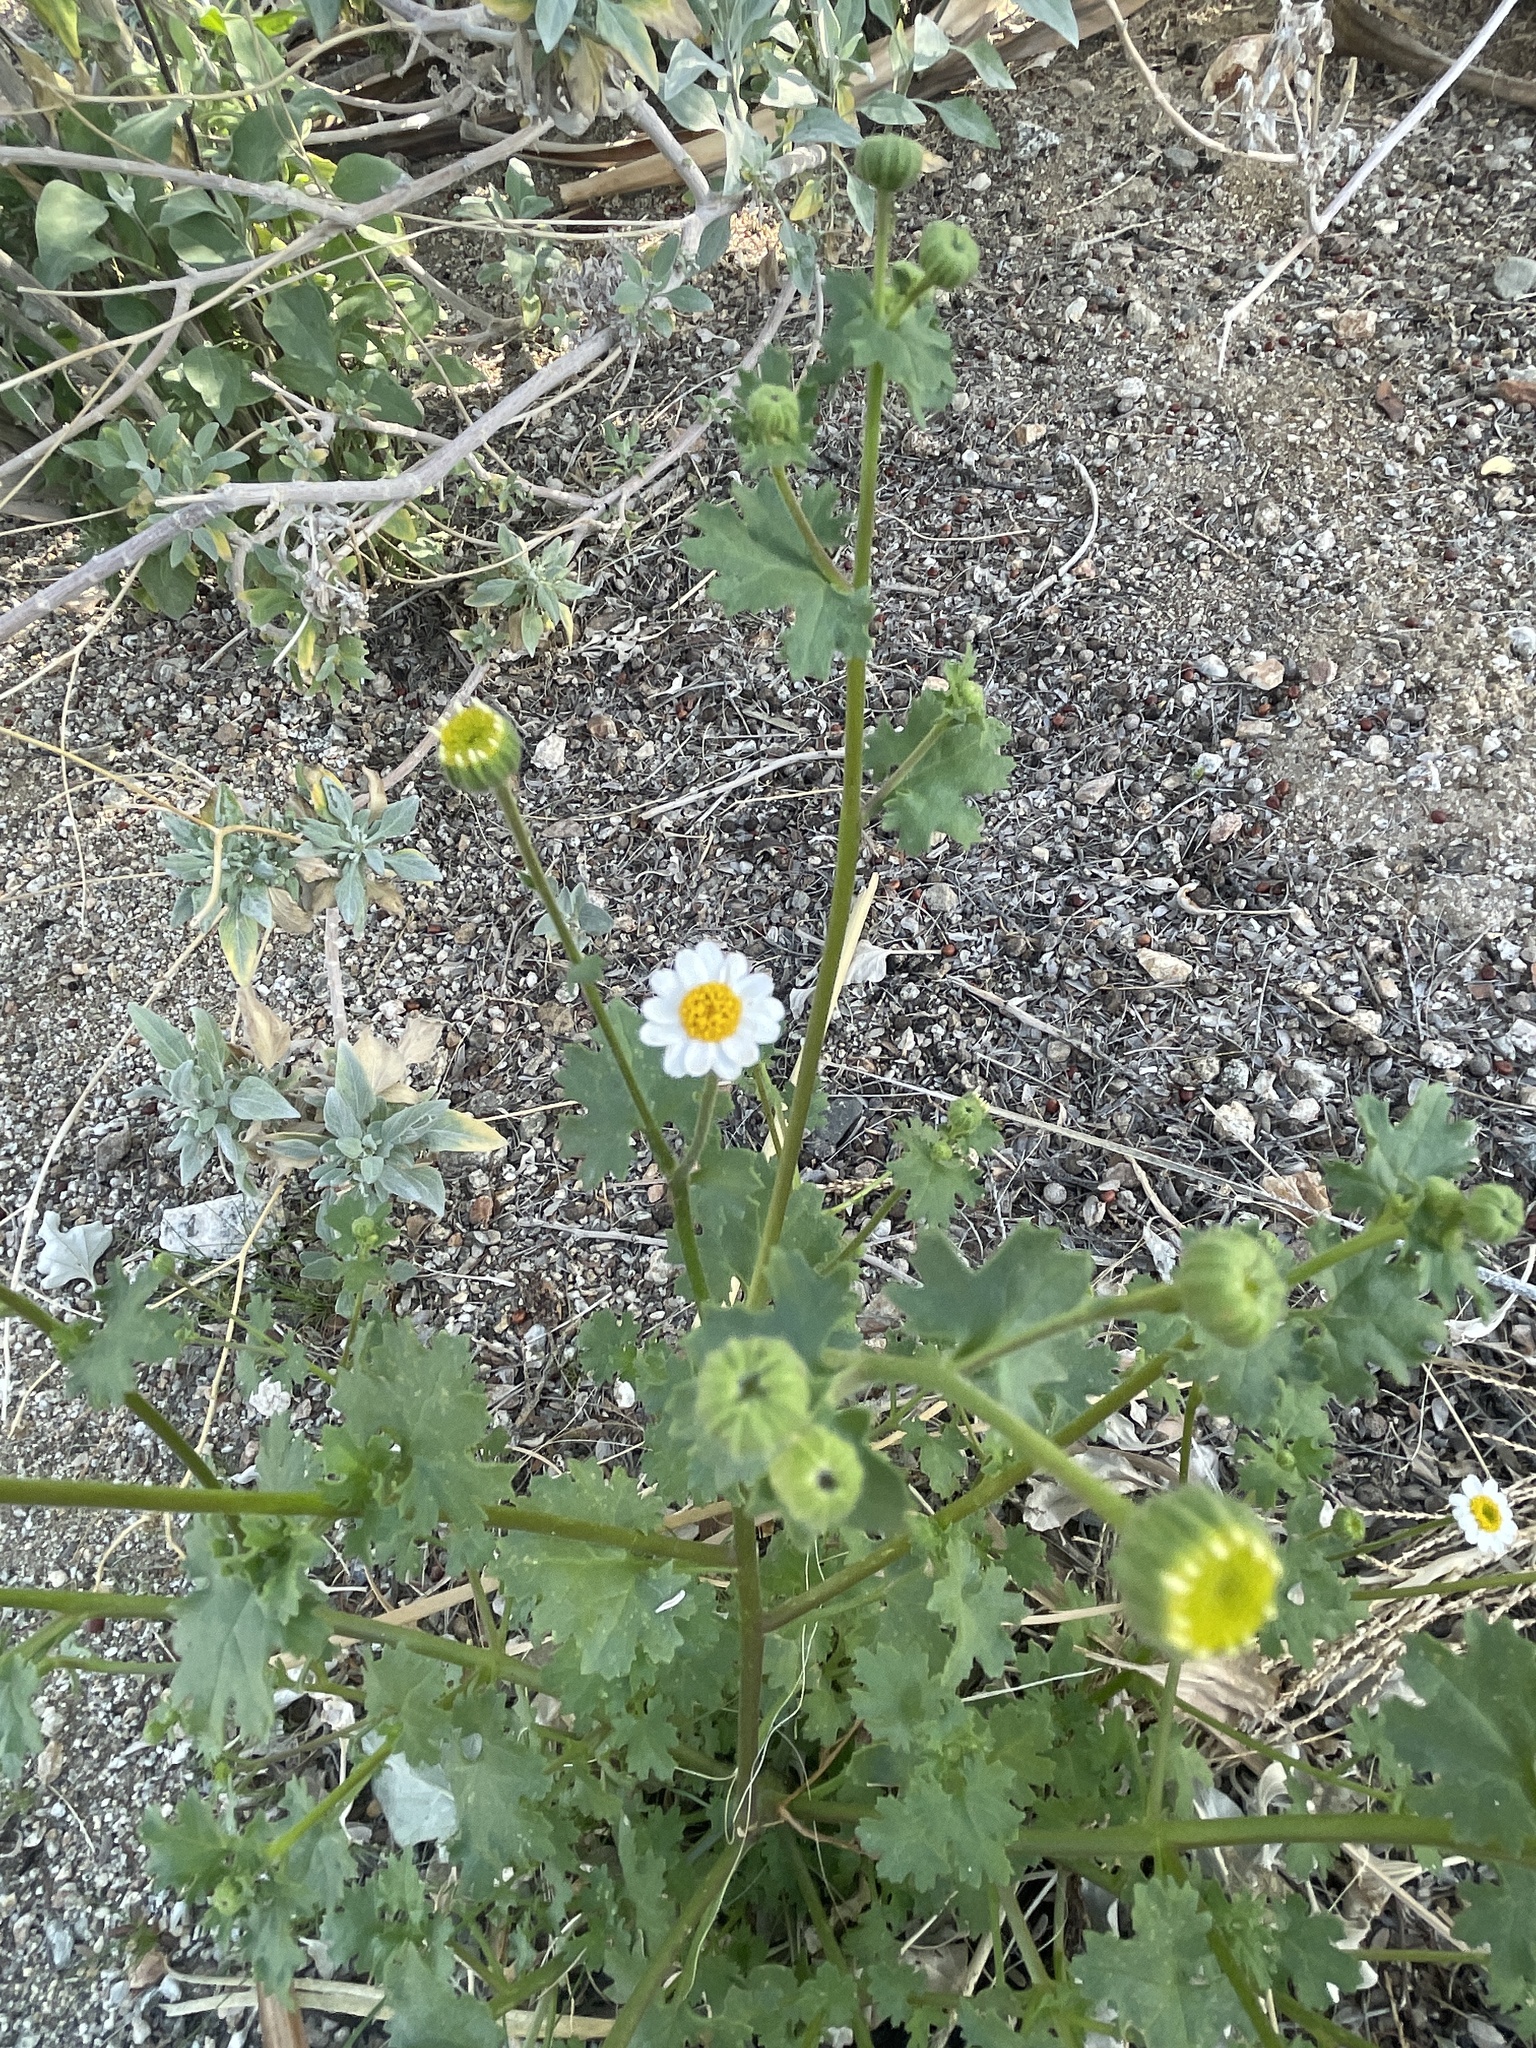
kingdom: Plantae
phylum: Tracheophyta
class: Magnoliopsida
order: Asterales
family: Asteraceae
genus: Laphamia
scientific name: Laphamia emoryi
